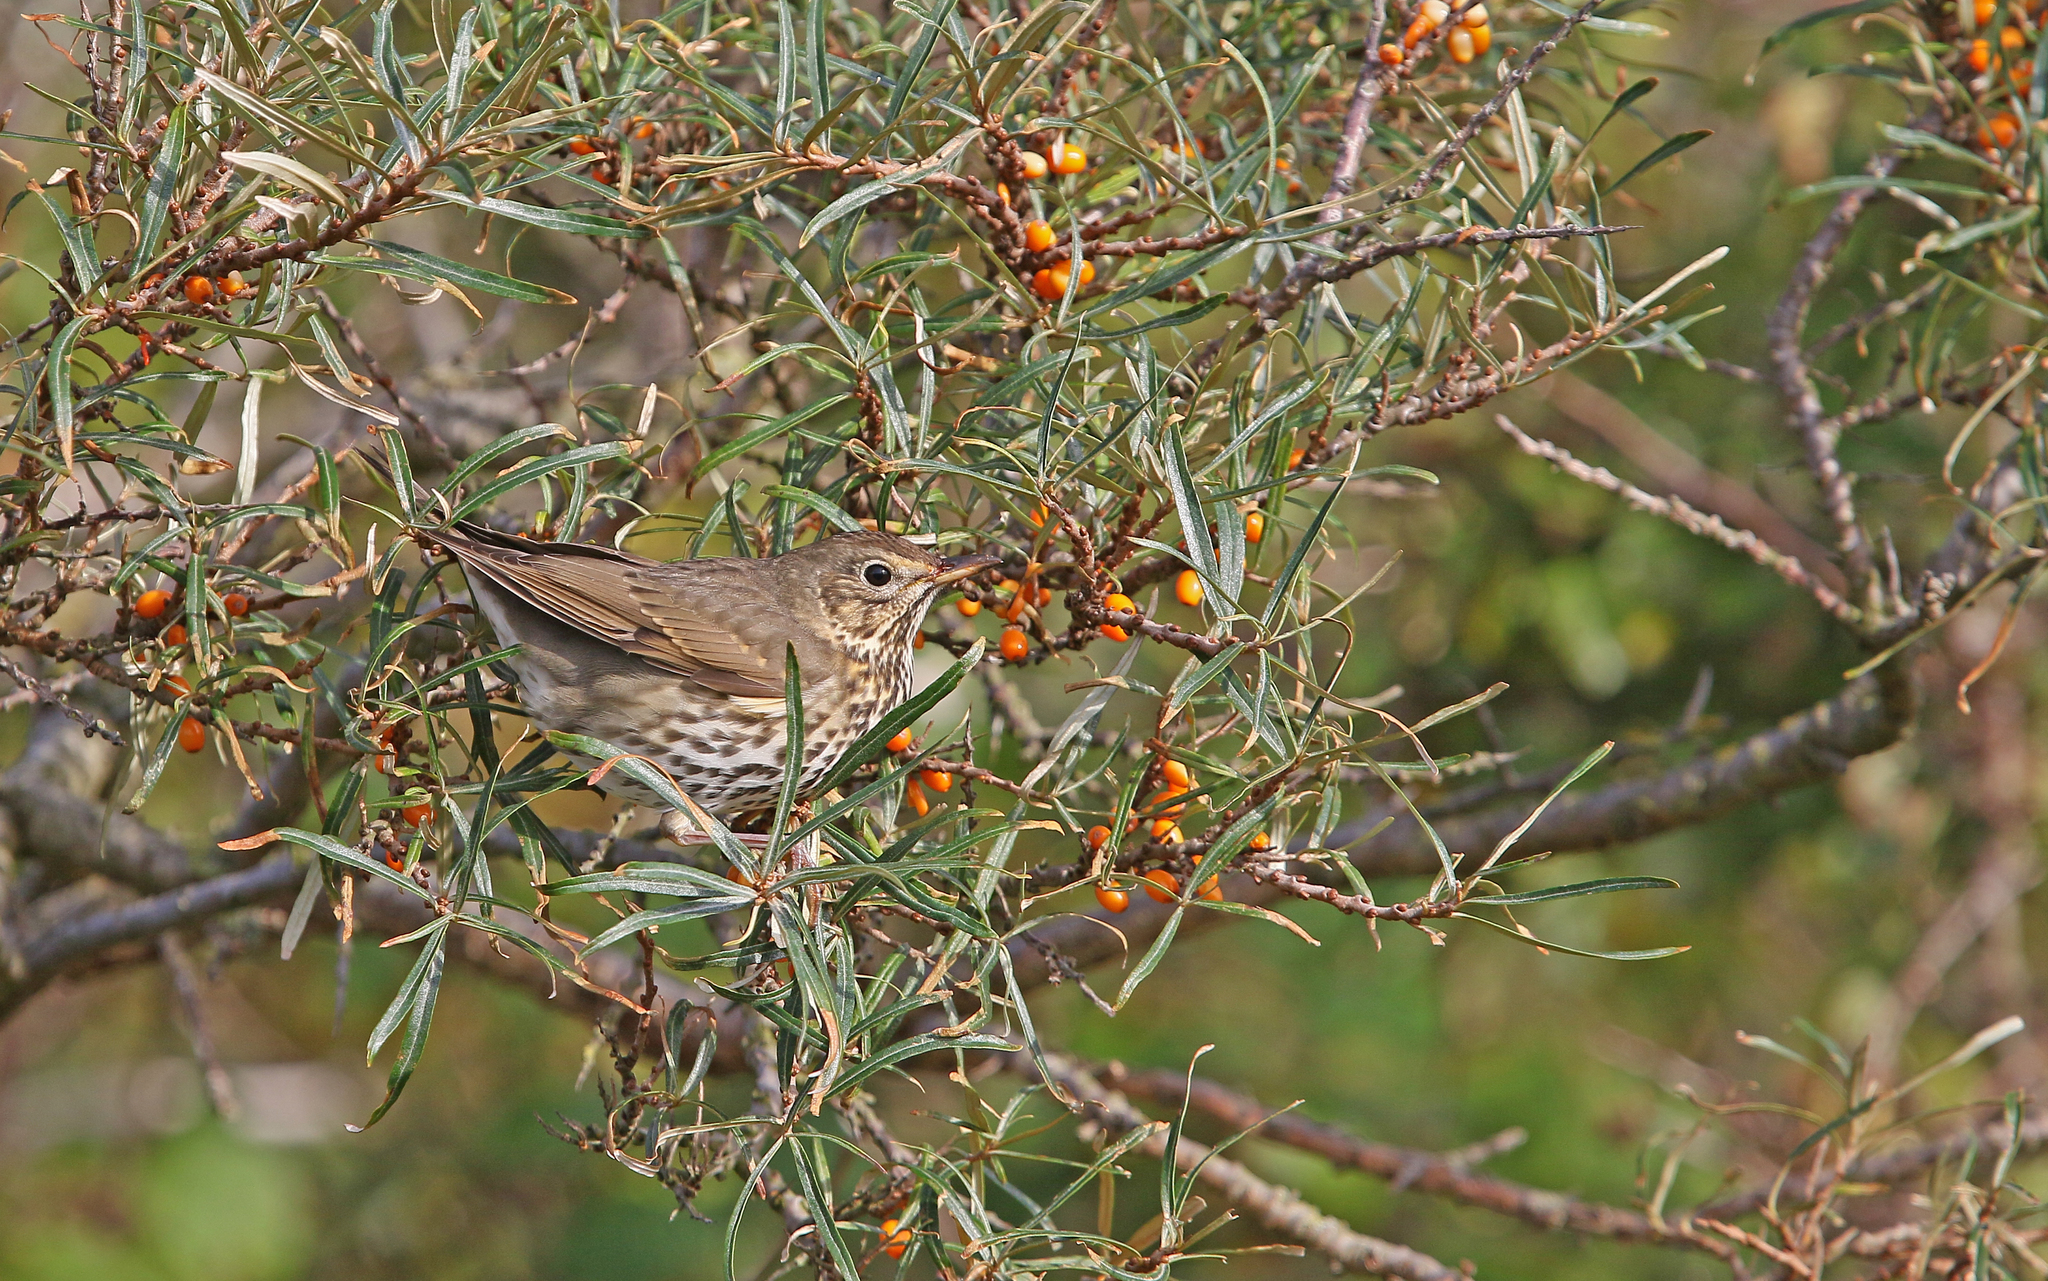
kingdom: Animalia
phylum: Chordata
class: Aves
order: Passeriformes
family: Turdidae
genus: Turdus
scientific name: Turdus philomelos
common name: Song thrush
